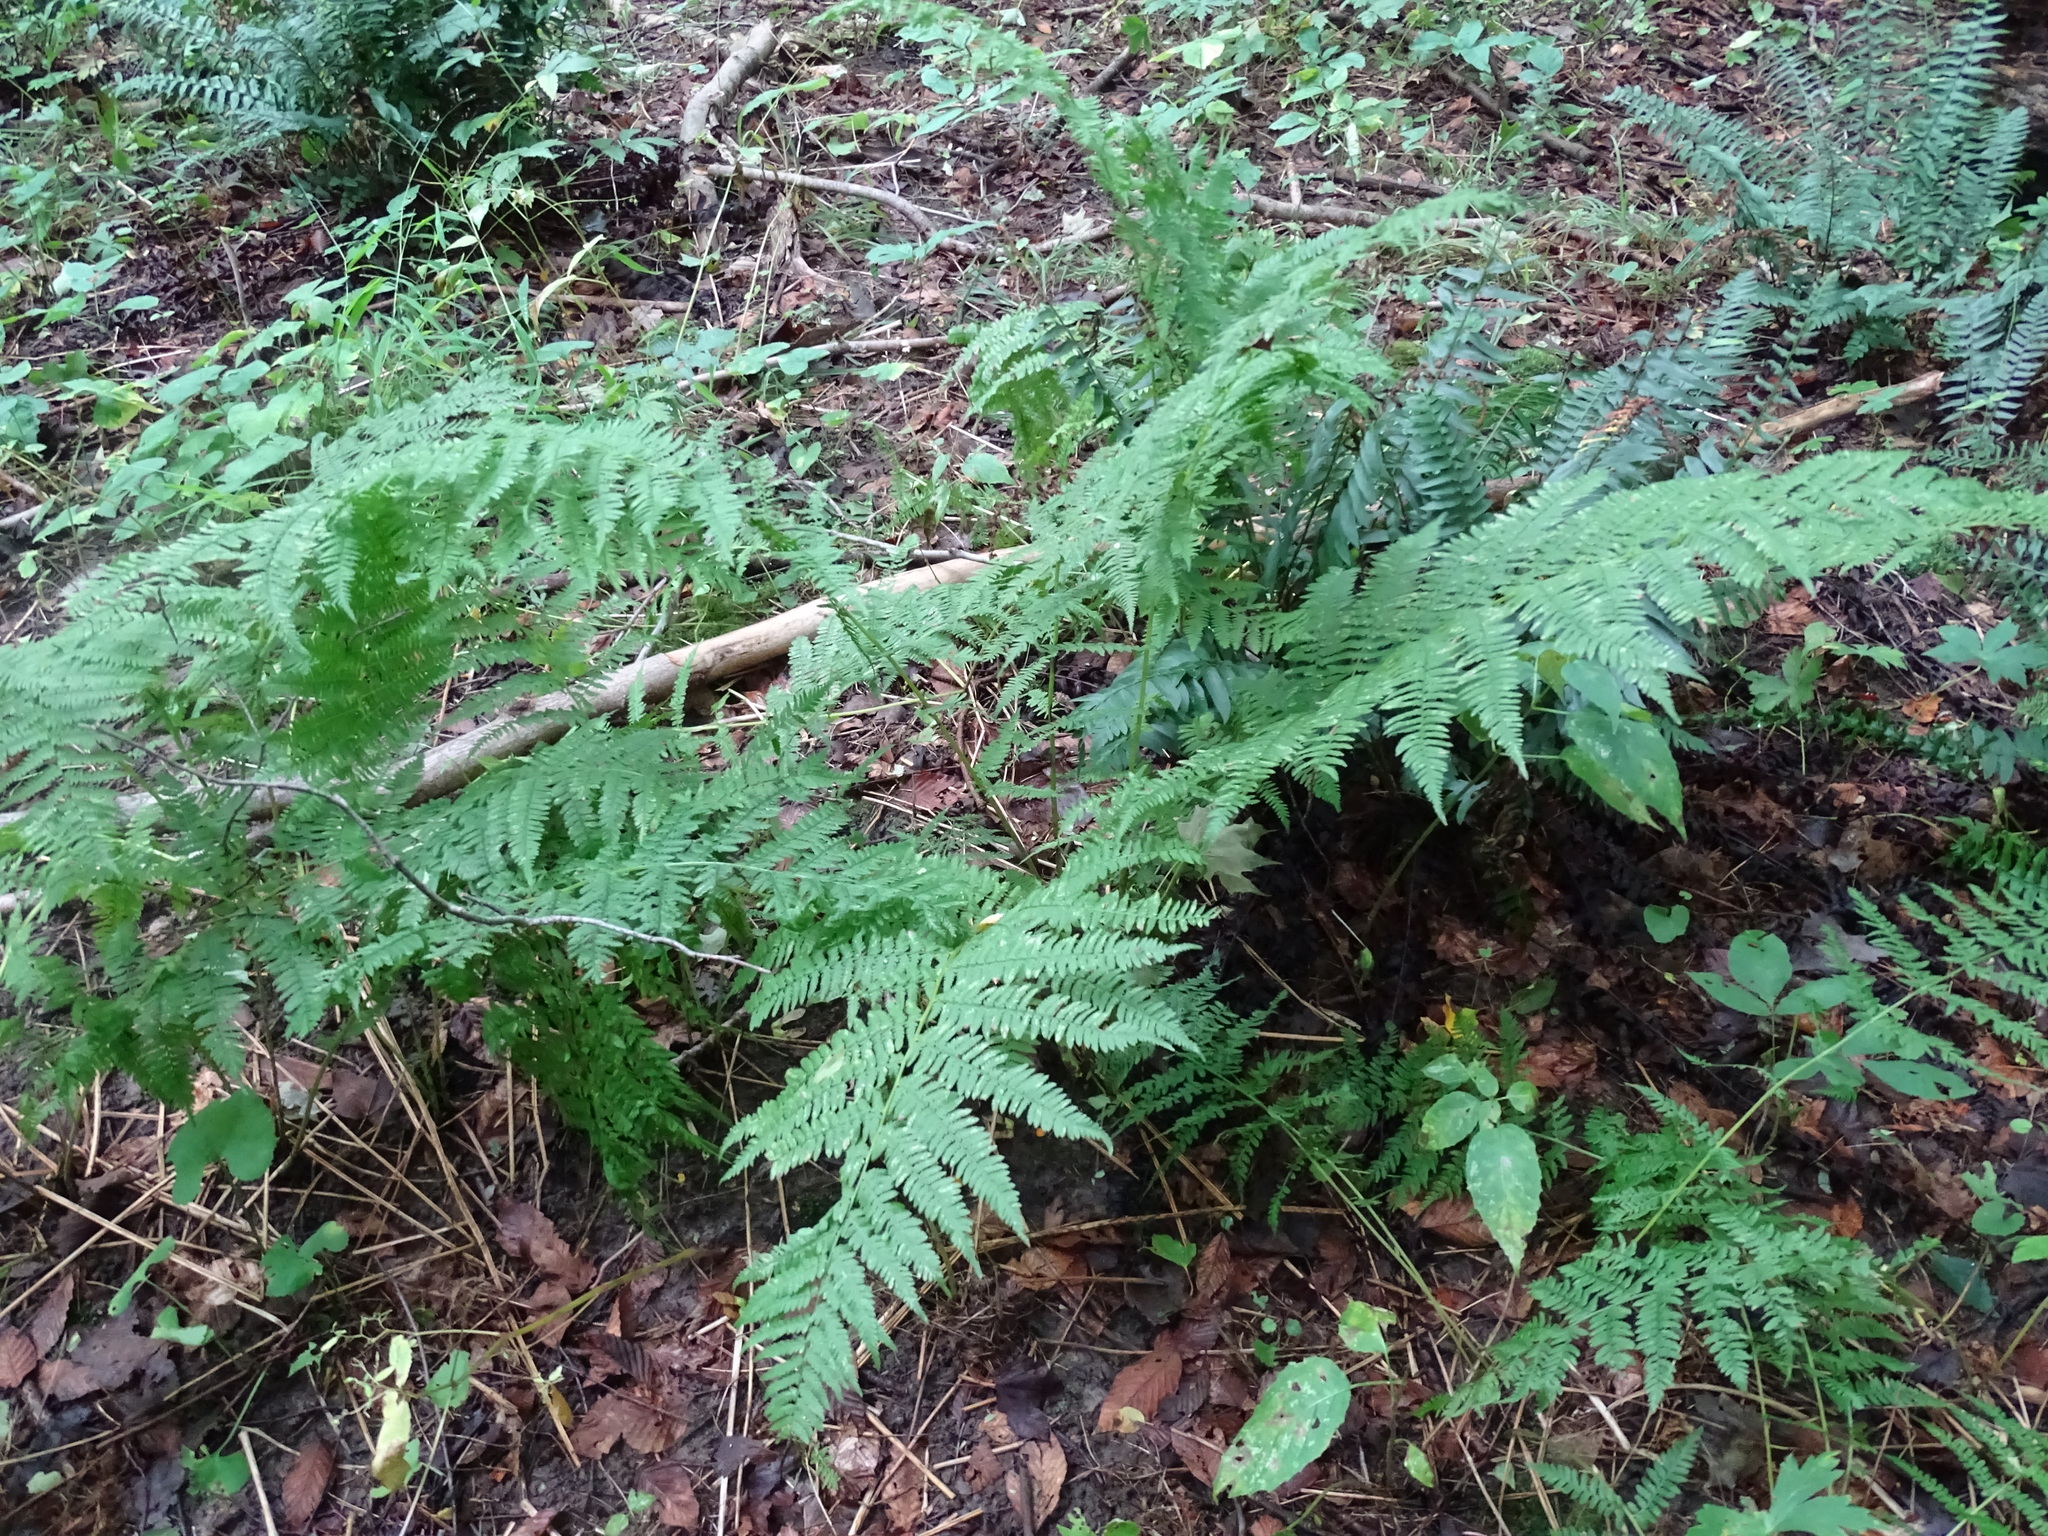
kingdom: Plantae
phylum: Tracheophyta
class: Polypodiopsida
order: Polypodiales
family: Athyriaceae
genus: Athyrium
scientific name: Athyrium angustum
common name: Northern lady fern
